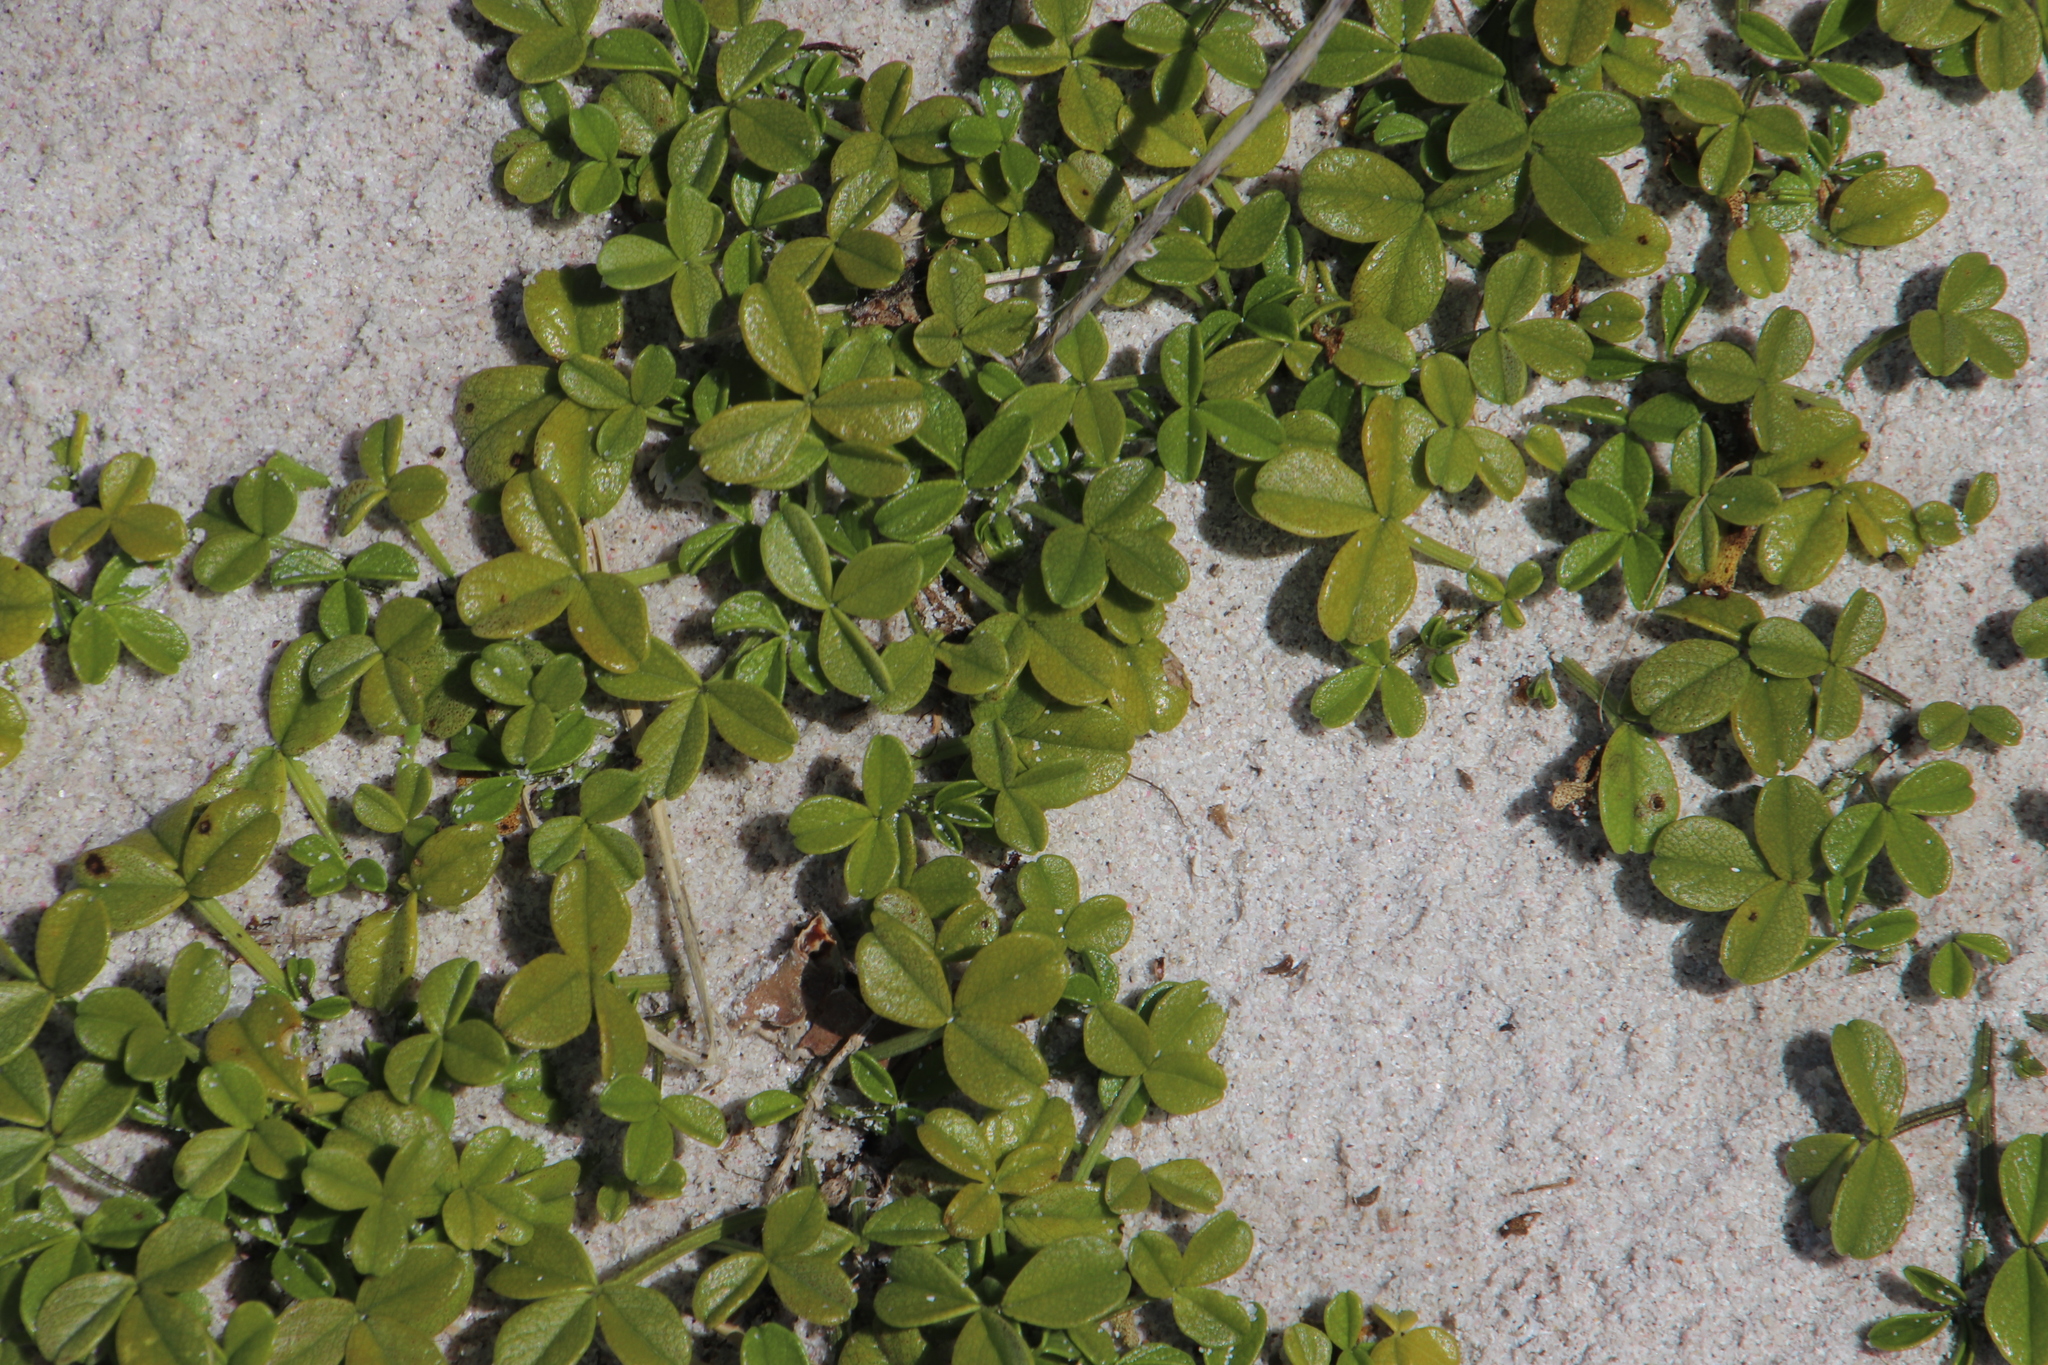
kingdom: Plantae
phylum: Tracheophyta
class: Magnoliopsida
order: Fabales
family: Fabaceae
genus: Psoralea
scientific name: Psoralea repens
